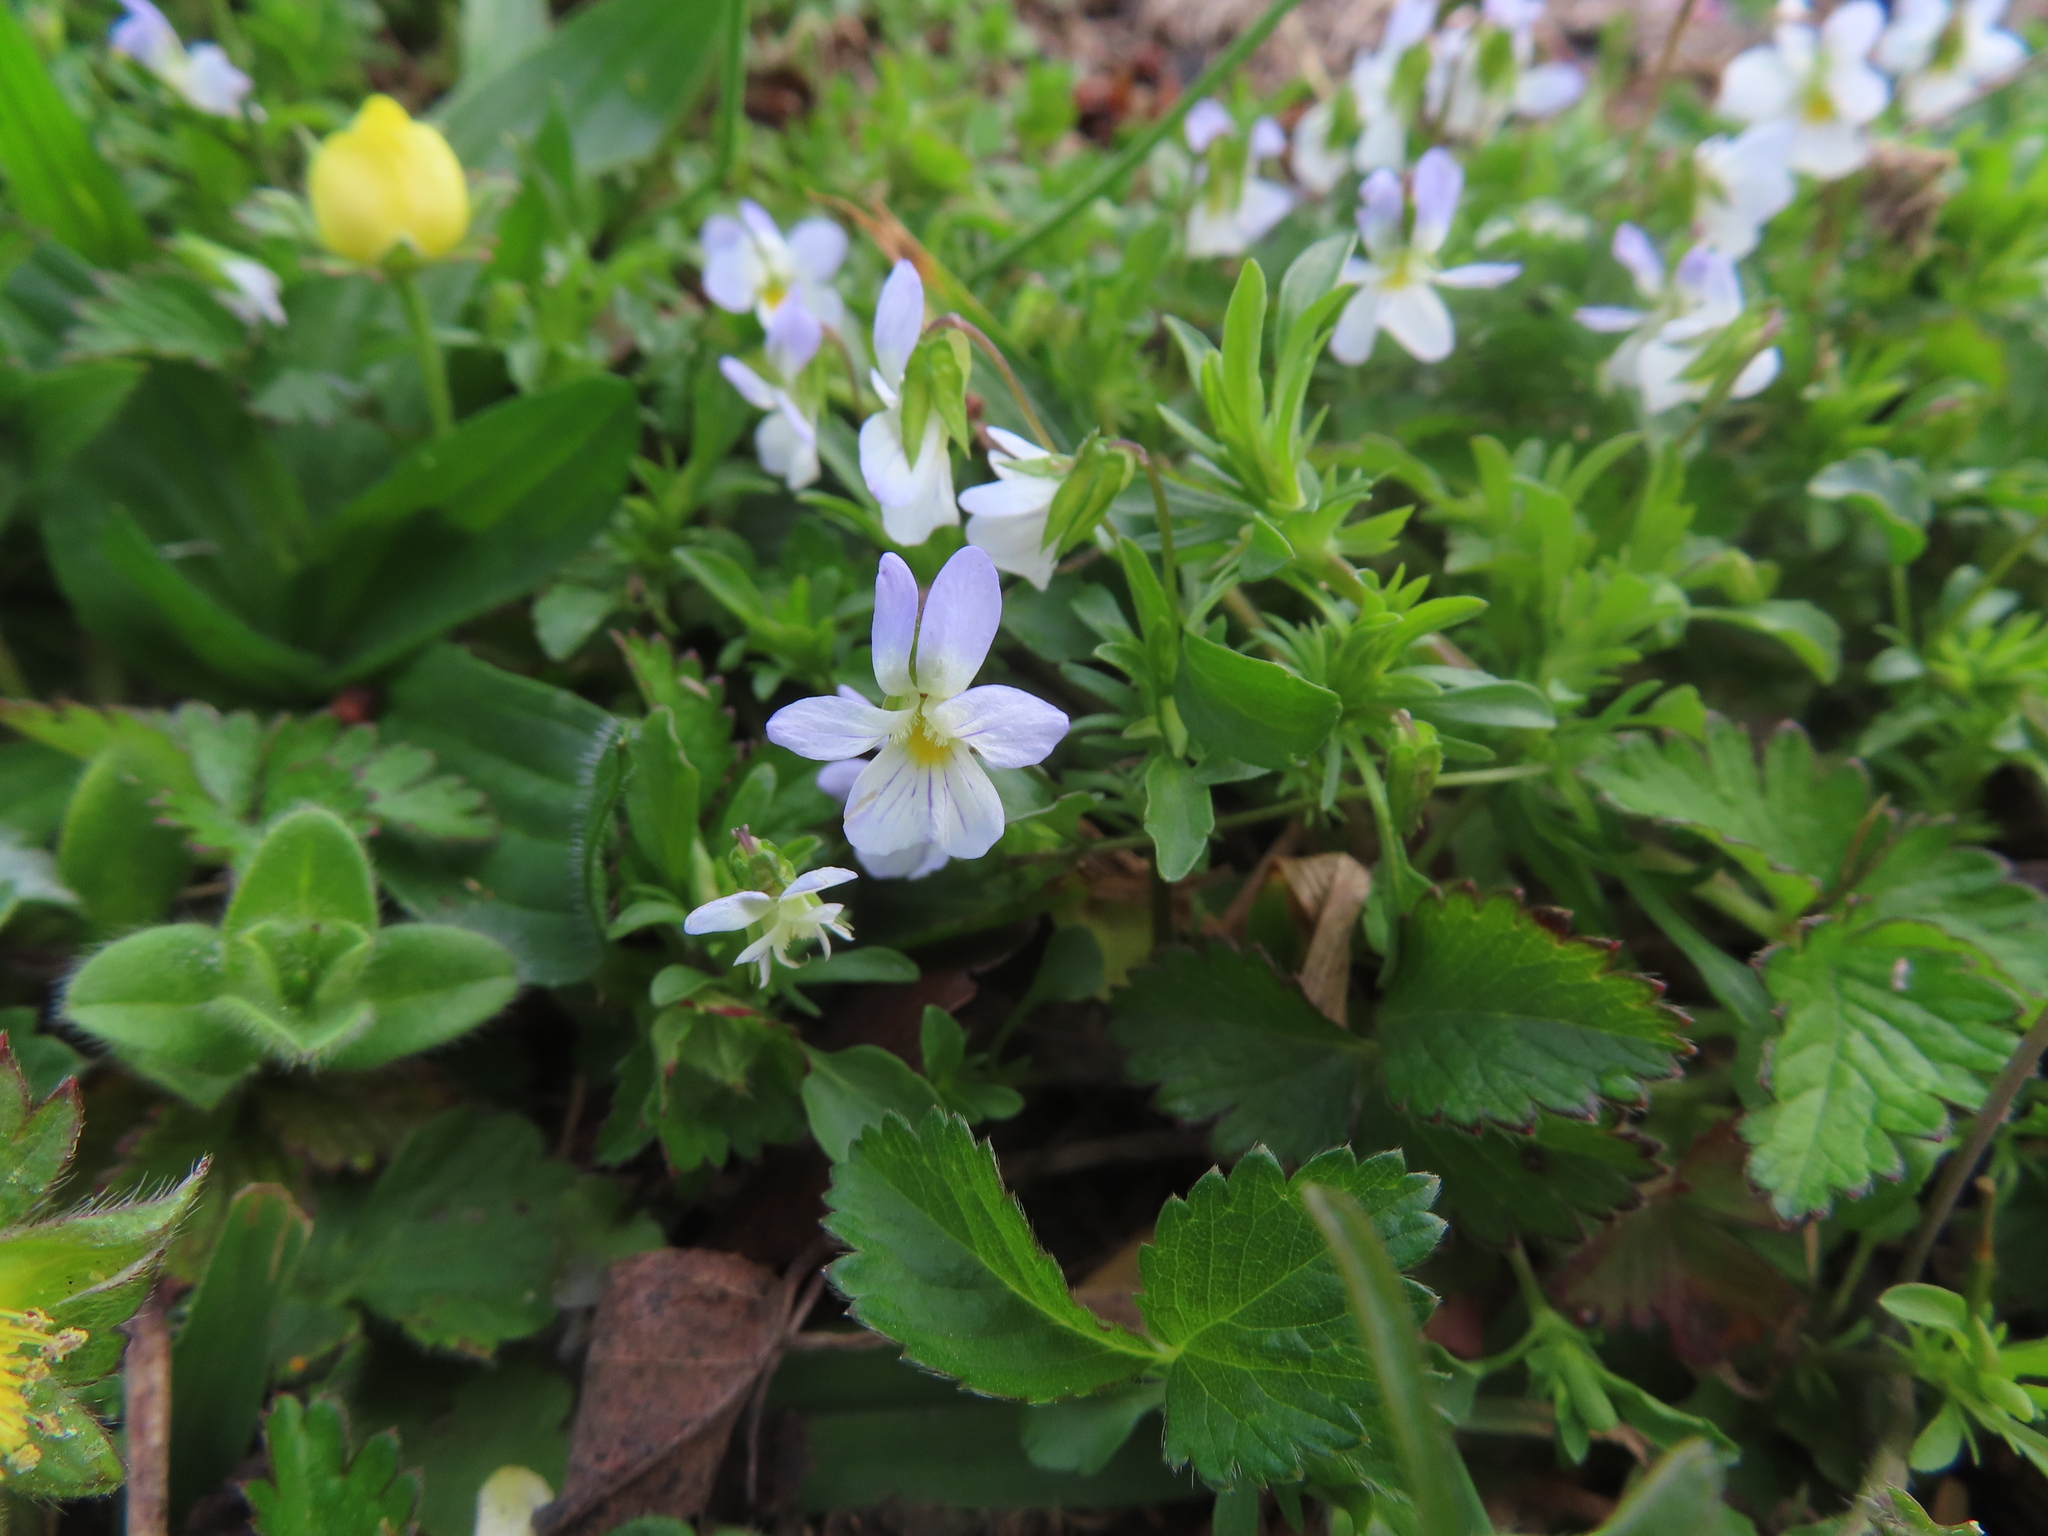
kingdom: Plantae
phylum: Tracheophyta
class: Magnoliopsida
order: Malpighiales
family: Violaceae
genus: Viola
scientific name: Viola rafinesquei
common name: American field pansy
